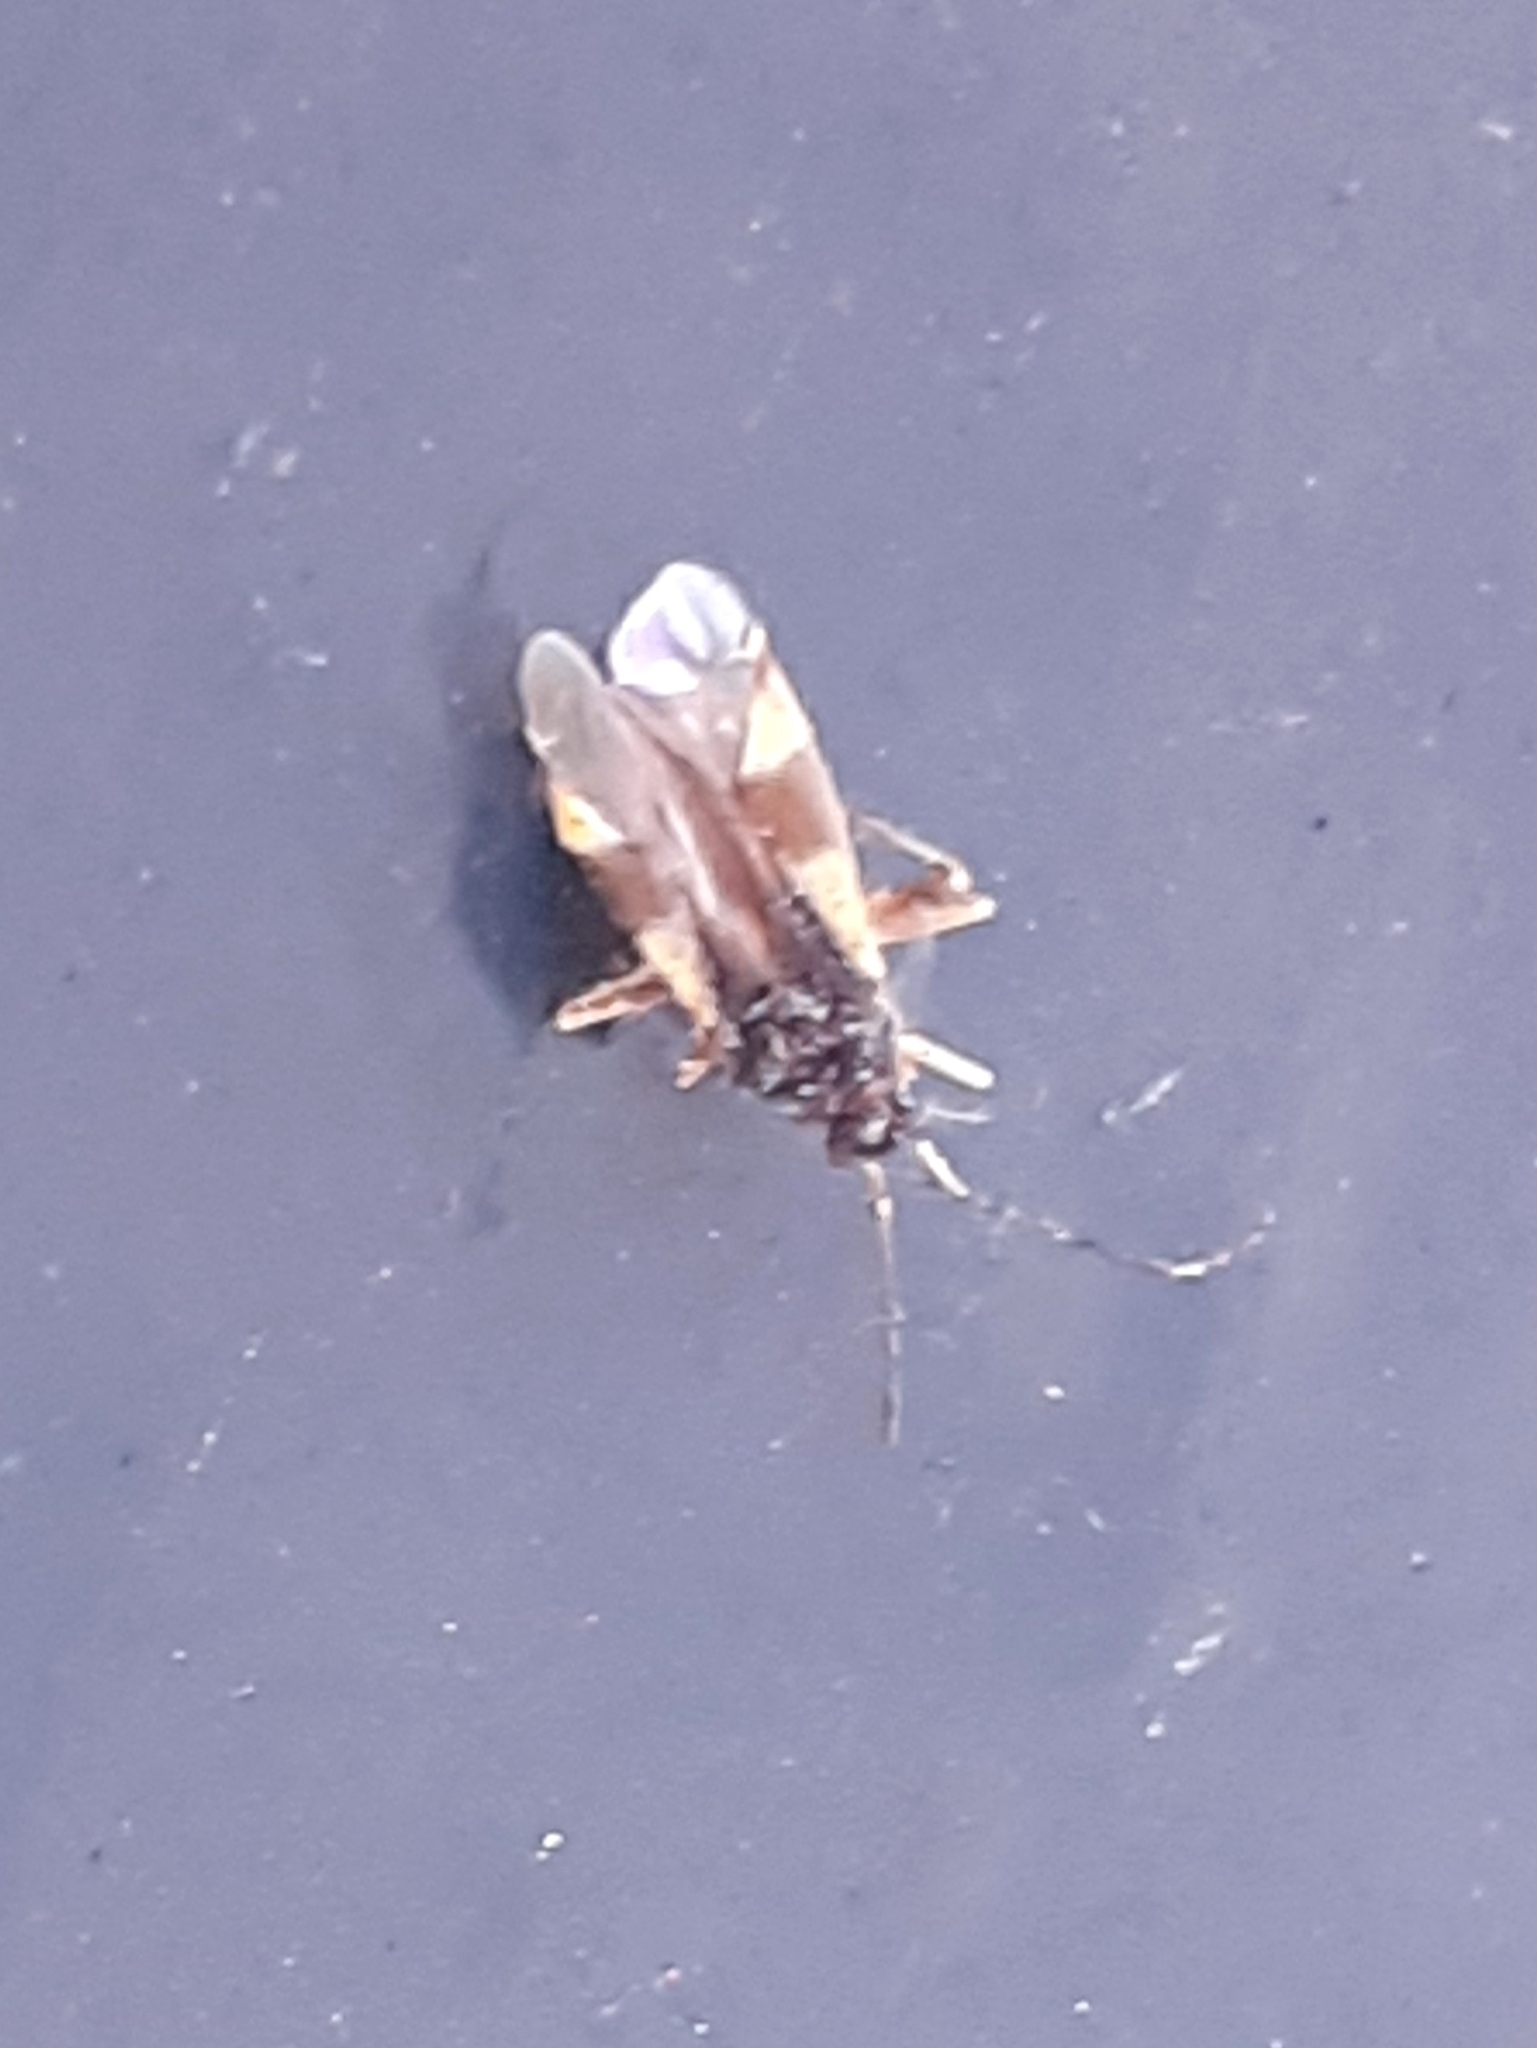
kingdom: Animalia
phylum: Arthropoda
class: Insecta
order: Hemiptera
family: Miridae
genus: Dryophilocoris
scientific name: Dryophilocoris flavoquadrimaculatus
